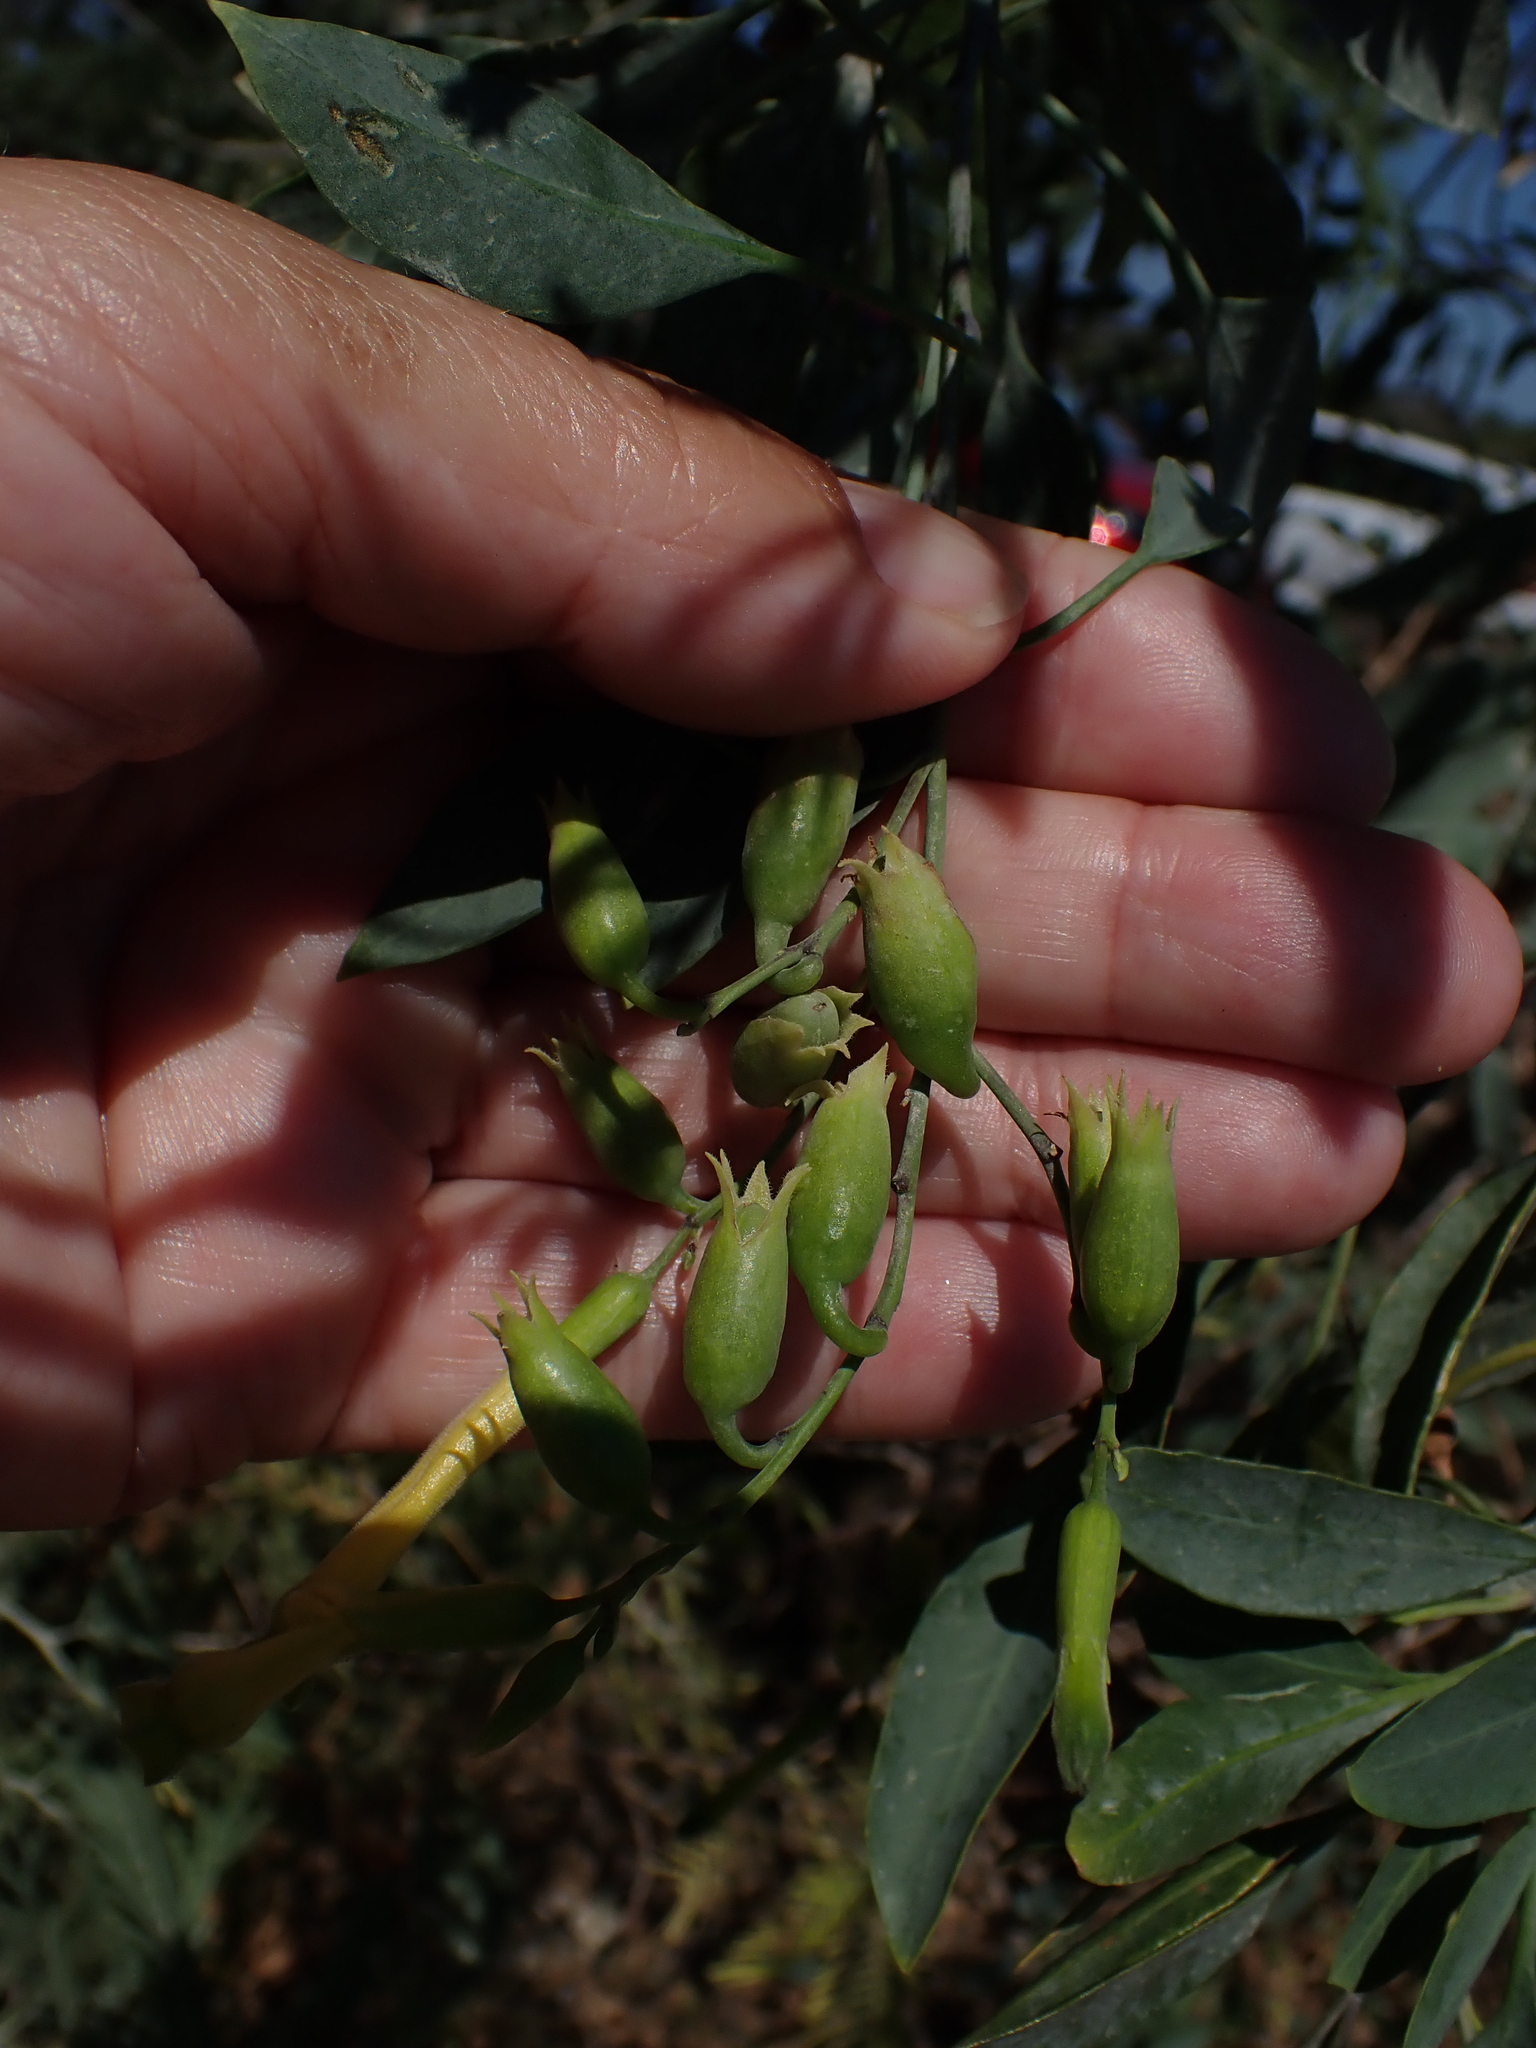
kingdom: Plantae
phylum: Tracheophyta
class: Magnoliopsida
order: Solanales
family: Solanaceae
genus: Nicotiana
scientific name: Nicotiana glauca
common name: Tree tobacco
